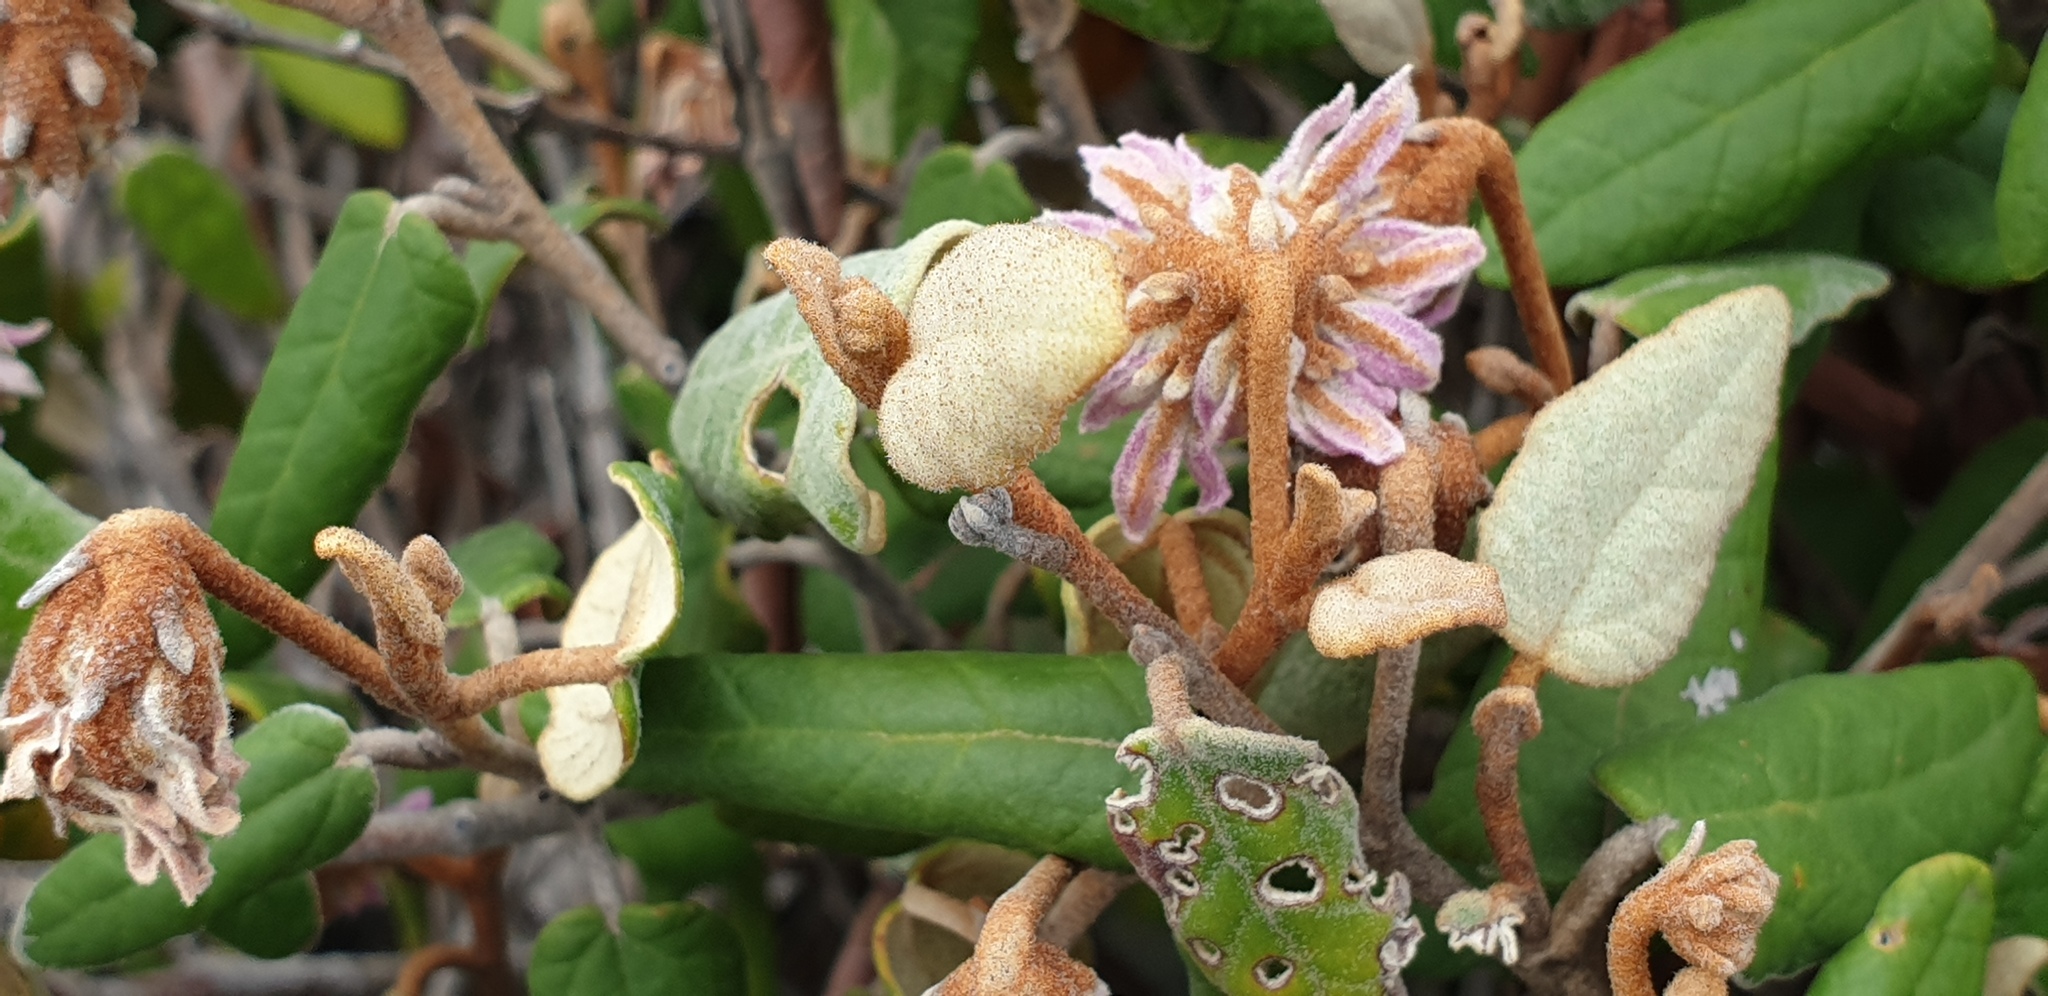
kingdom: Plantae
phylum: Tracheophyta
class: Magnoliopsida
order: Malvales
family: Malvaceae
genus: Lasiopetalum
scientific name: Lasiopetalum discolor
